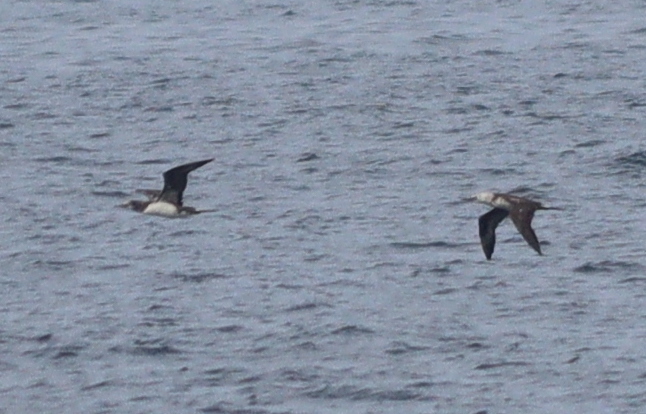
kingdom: Animalia
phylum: Chordata
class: Aves
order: Suliformes
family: Sulidae
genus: Morus
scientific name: Morus bassanus
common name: Northern gannet
